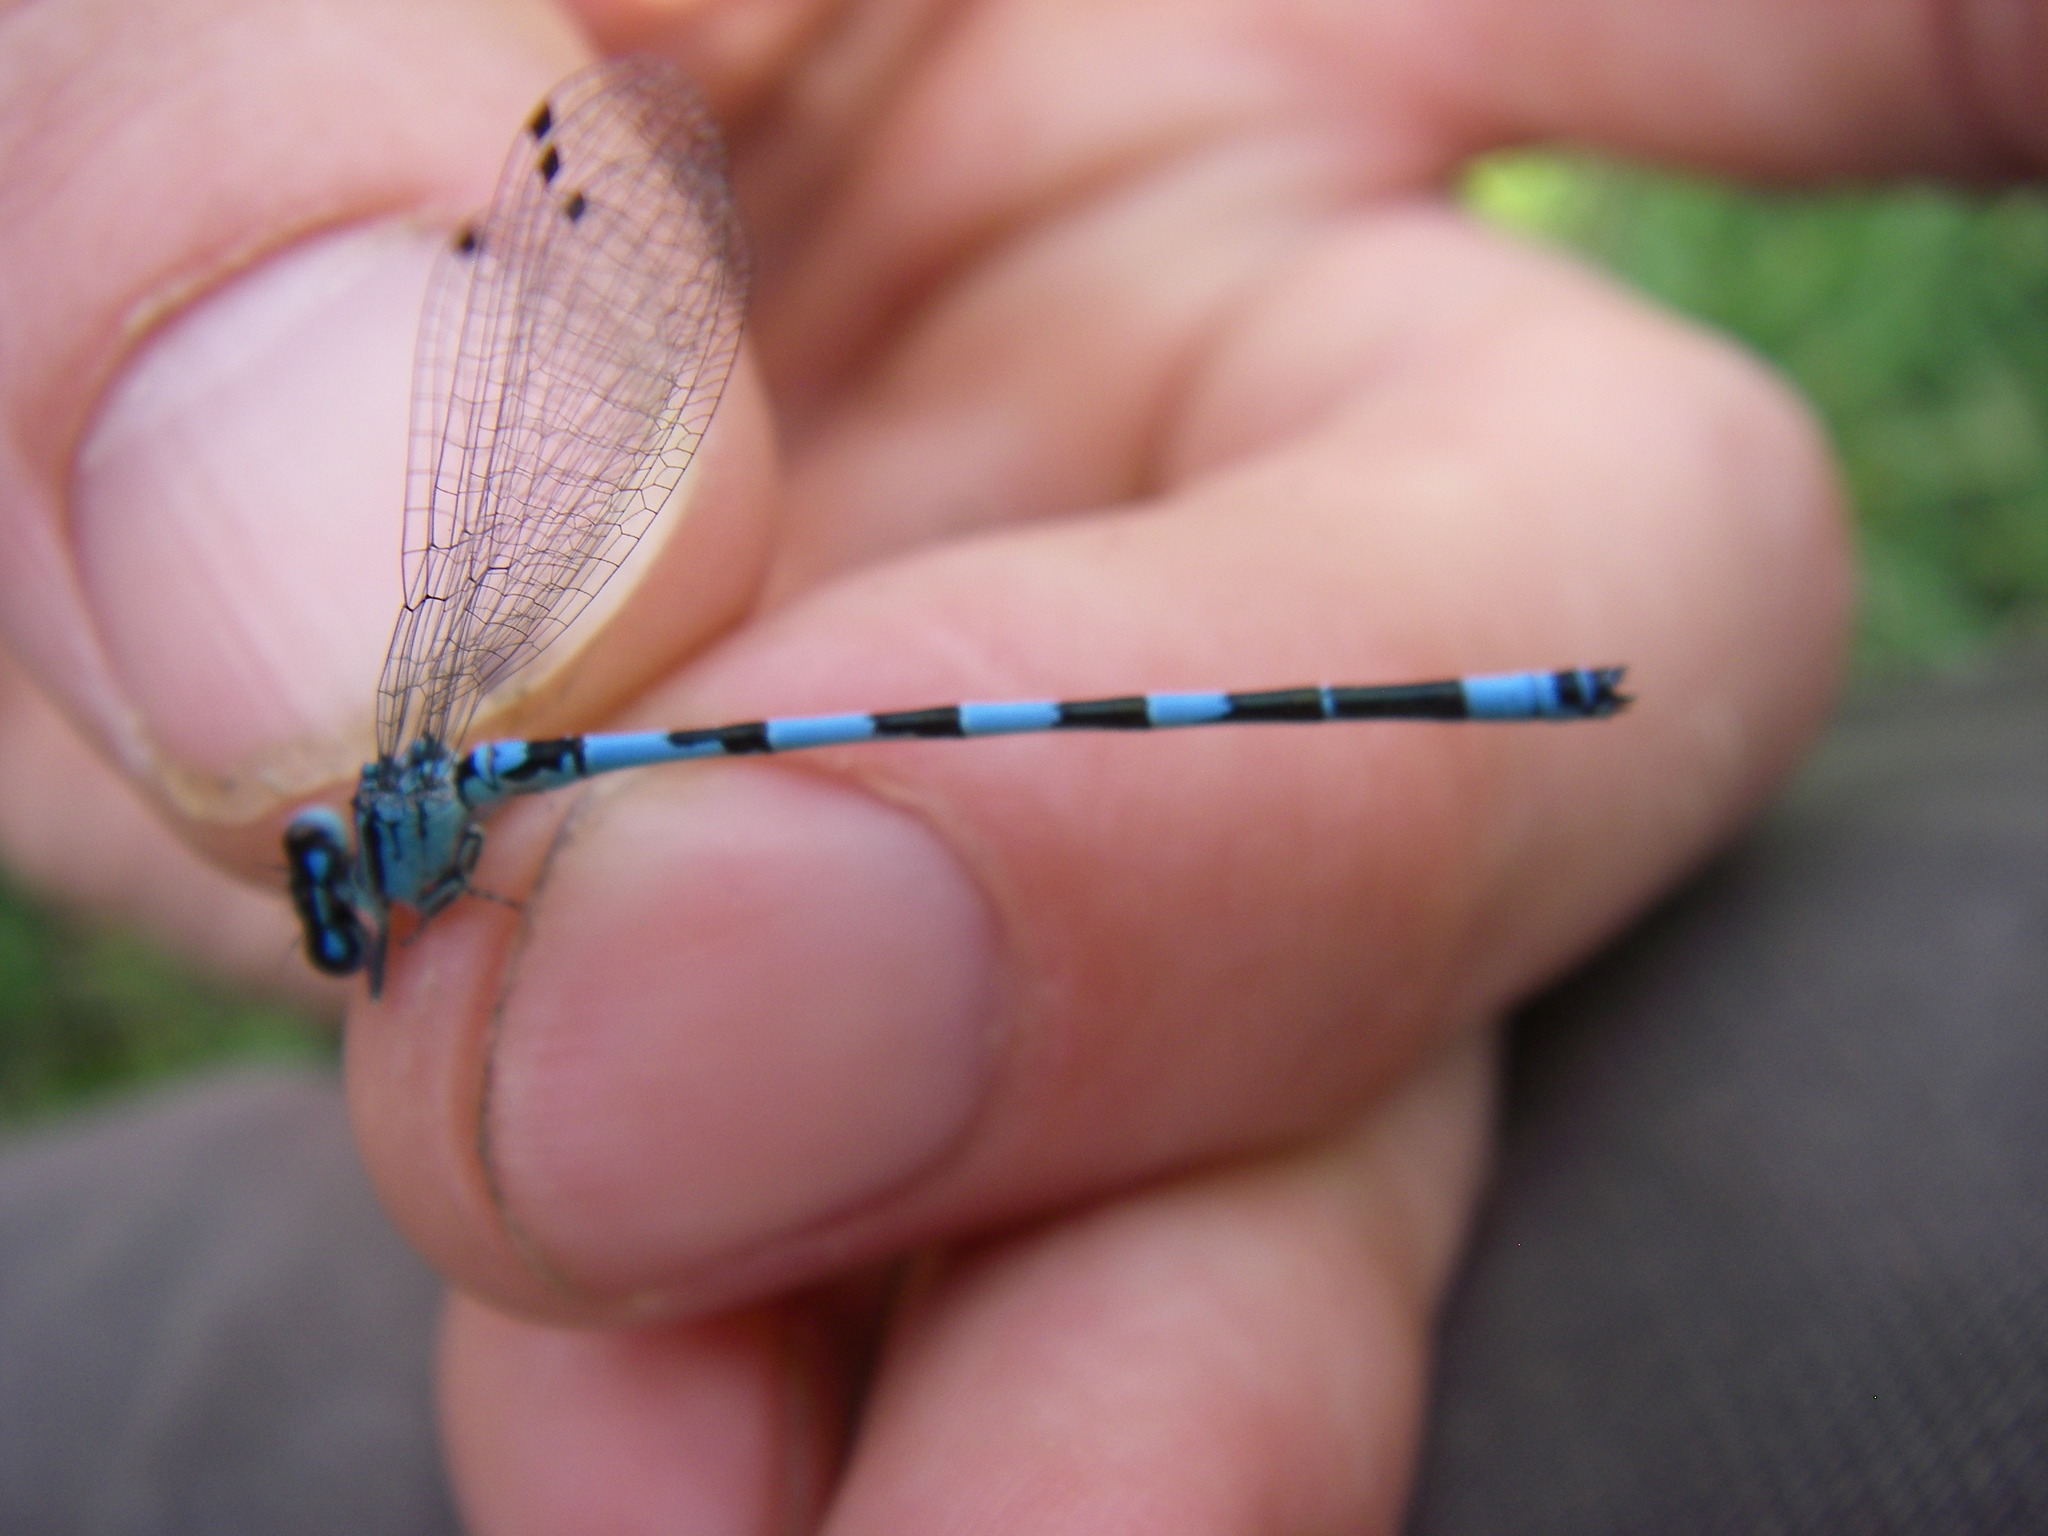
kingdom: Animalia
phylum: Arthropoda
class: Insecta
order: Odonata
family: Coenagrionidae
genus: Coenagrion
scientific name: Coenagrion mercuriale
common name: Southern damselfly
